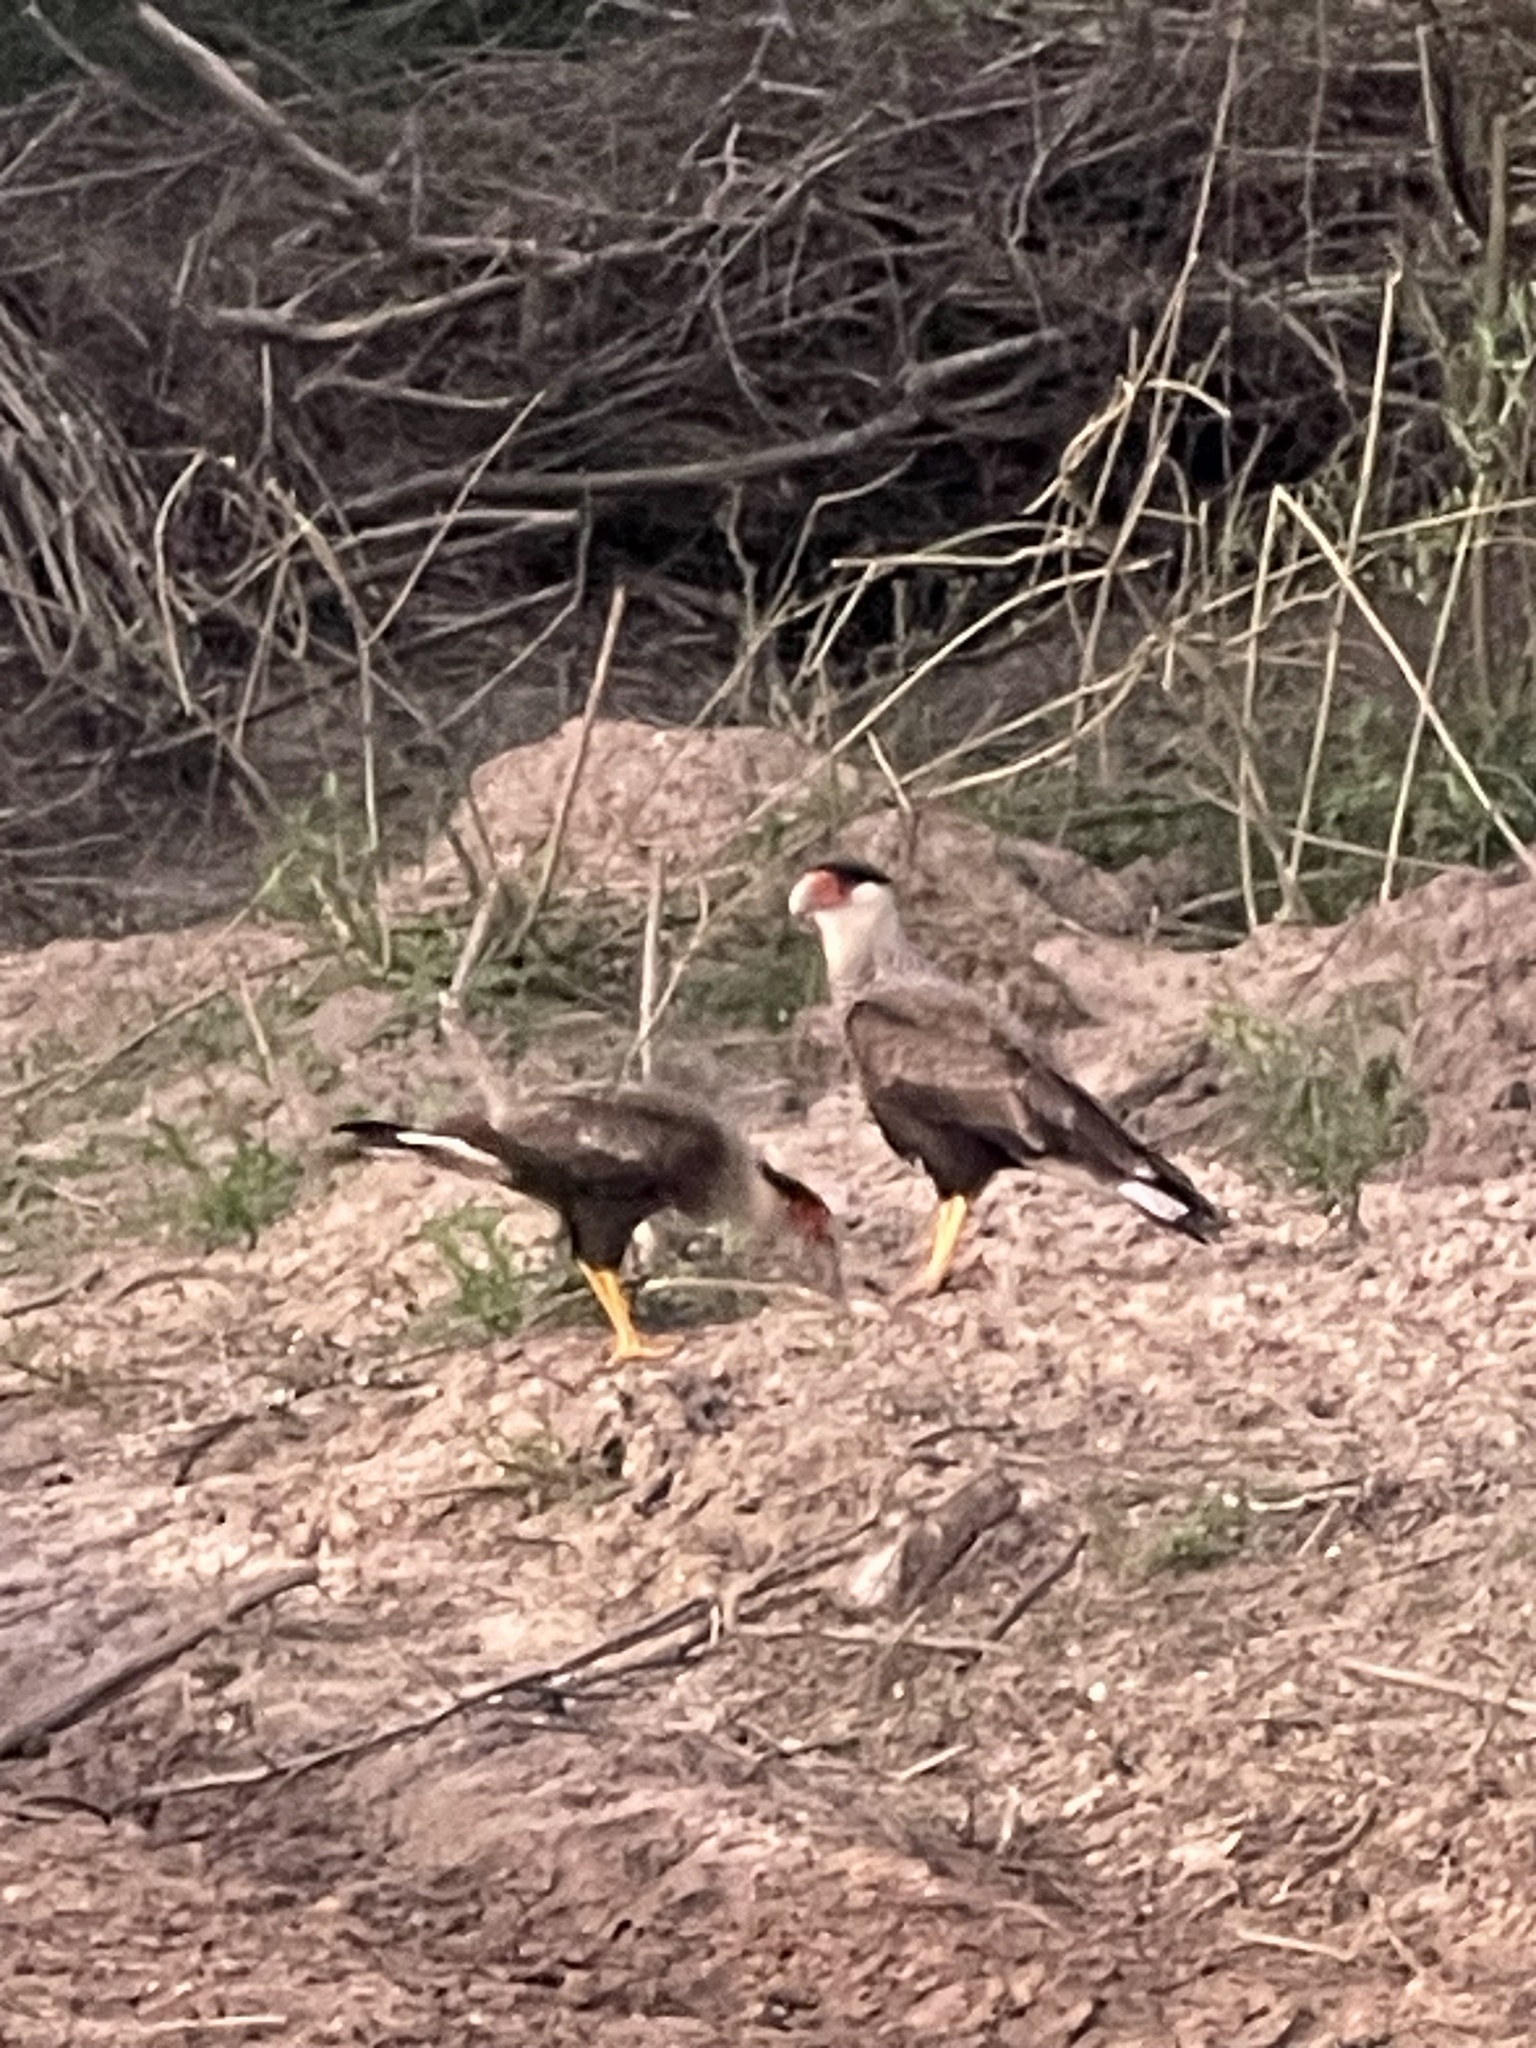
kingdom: Animalia
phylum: Chordata
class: Aves
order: Falconiformes
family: Falconidae
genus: Caracara
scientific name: Caracara plancus
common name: Southern caracara
